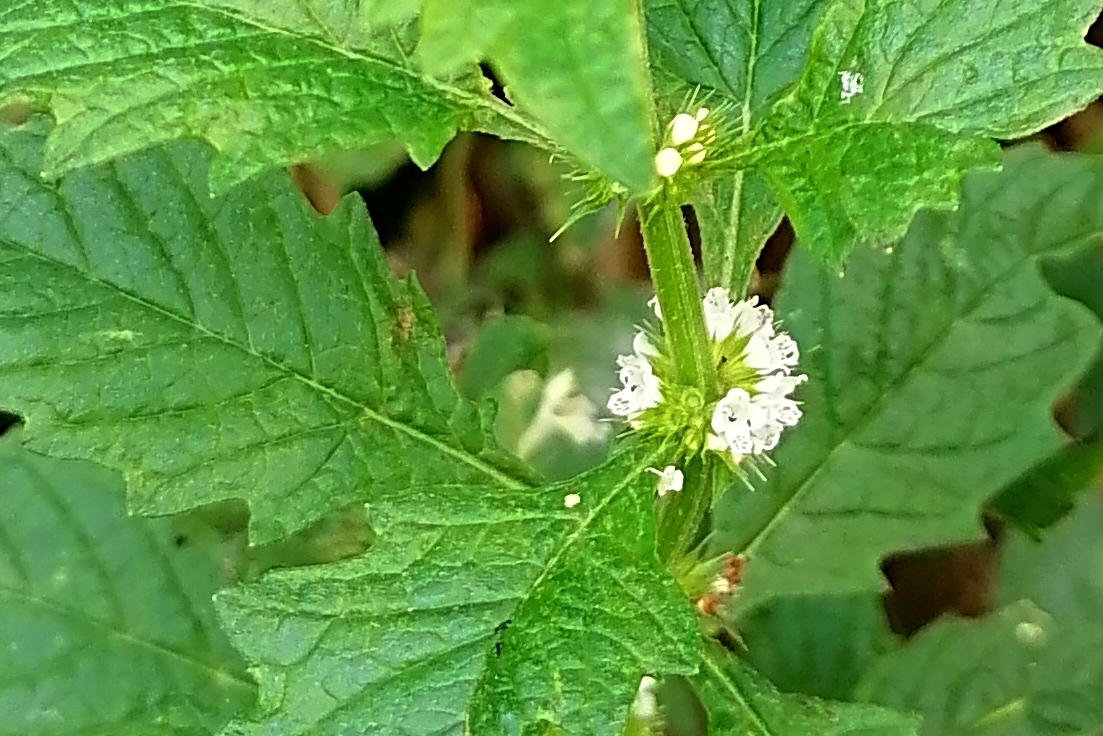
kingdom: Plantae
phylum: Tracheophyta
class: Magnoliopsida
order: Lamiales
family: Lamiaceae
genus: Lycopus
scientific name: Lycopus europaeus
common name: European bugleweed
